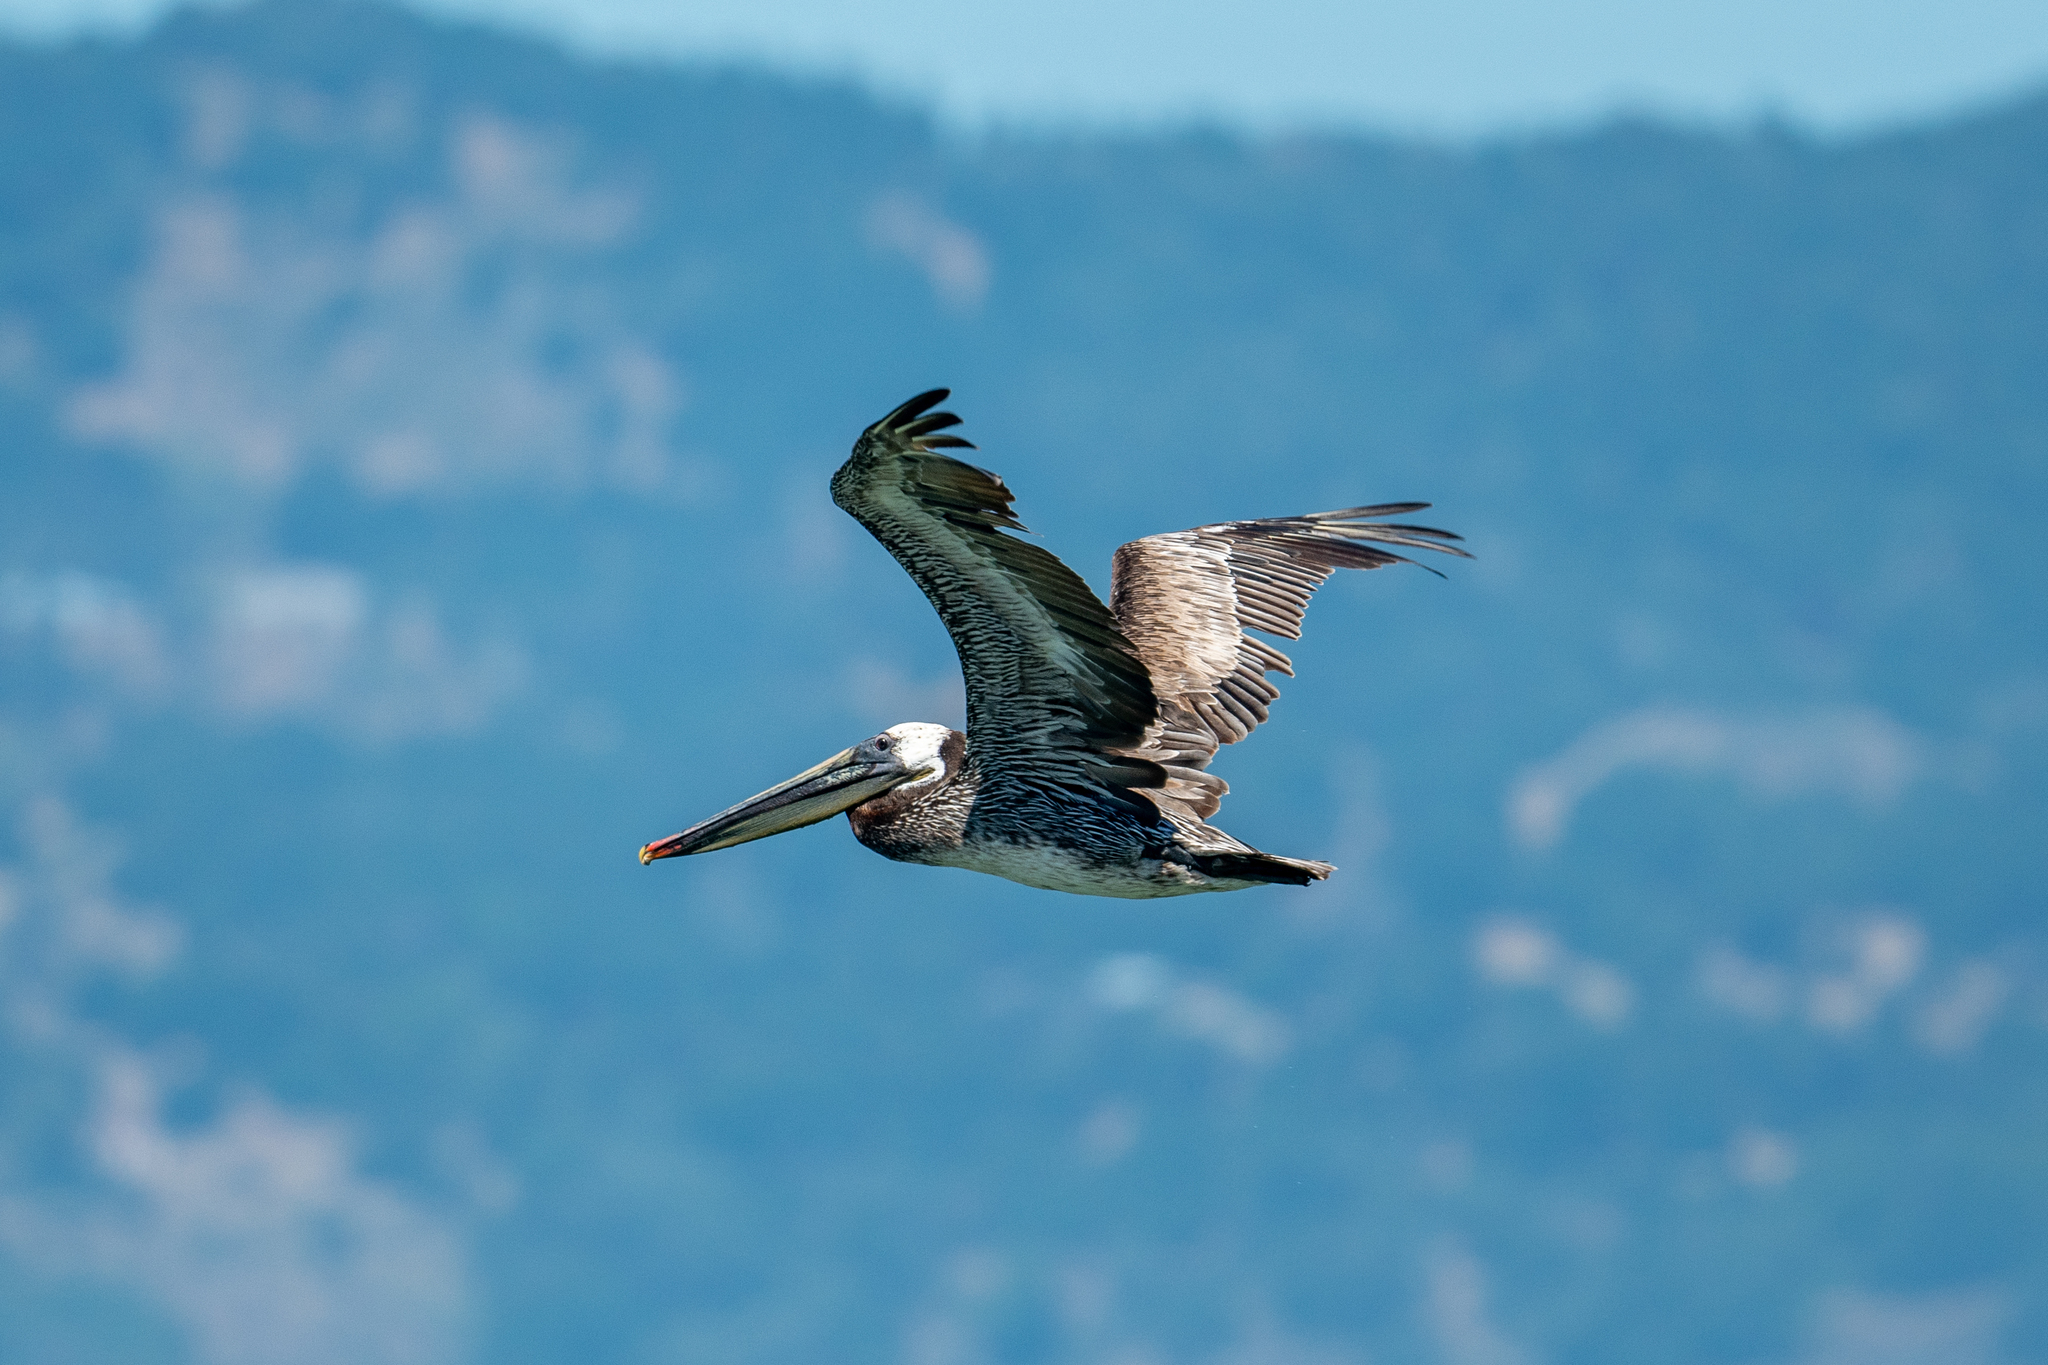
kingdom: Animalia
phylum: Chordata
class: Aves
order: Pelecaniformes
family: Pelecanidae
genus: Pelecanus
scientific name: Pelecanus occidentalis
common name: Brown pelican
